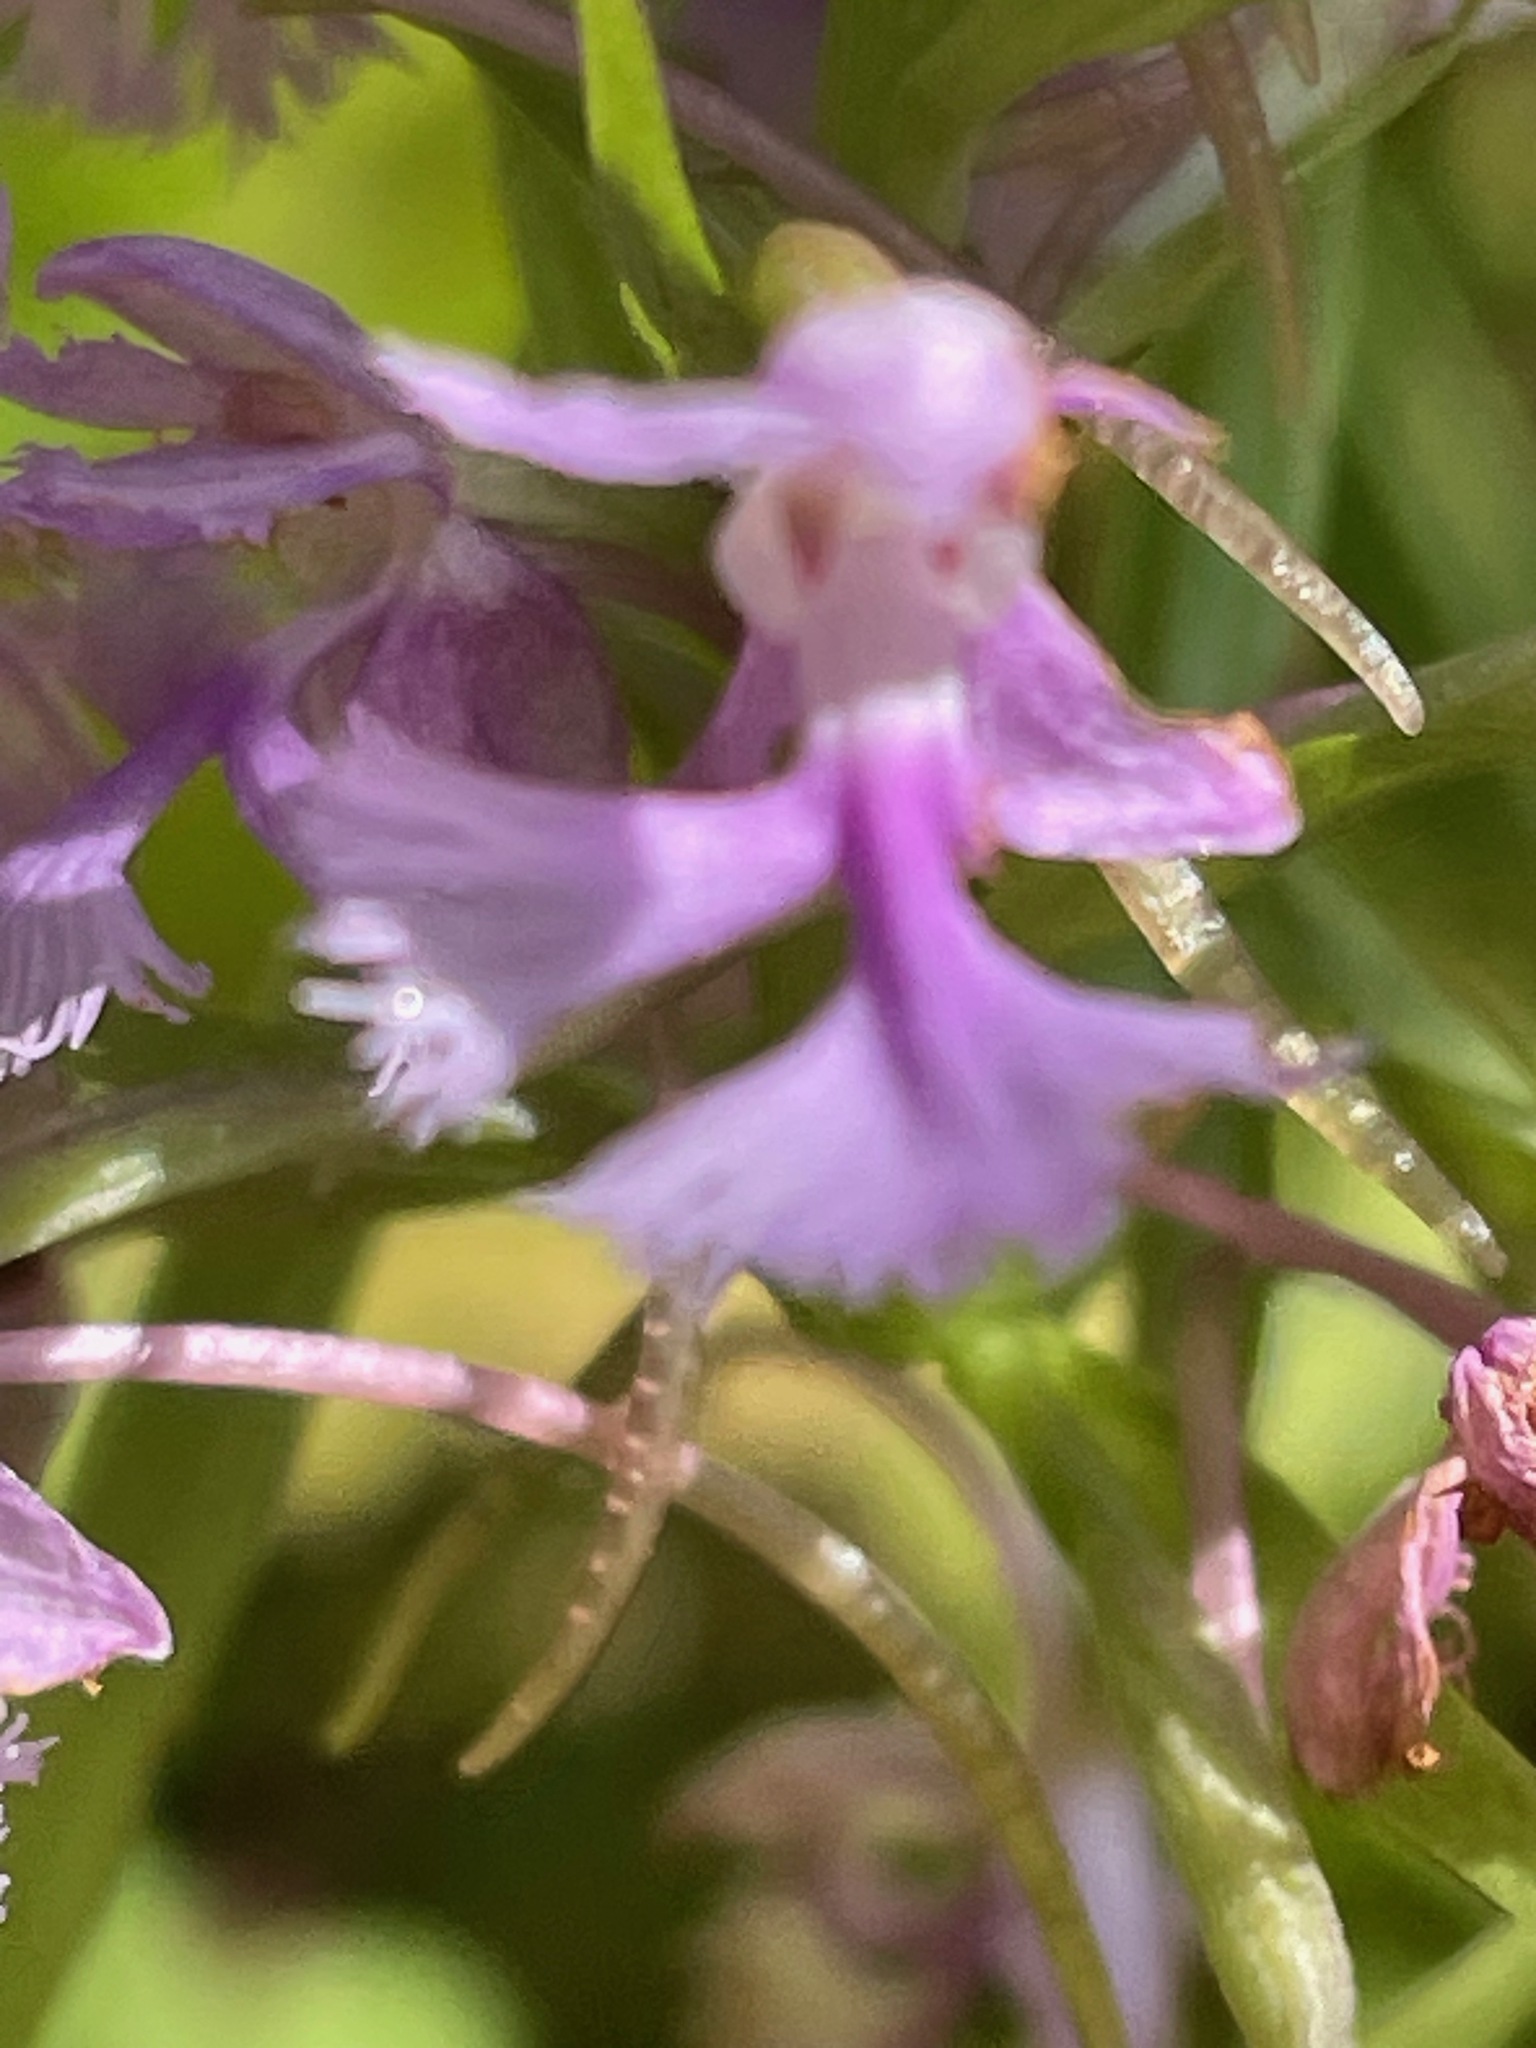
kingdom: Plantae
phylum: Tracheophyta
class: Liliopsida
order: Asparagales
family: Orchidaceae
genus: Platanthera
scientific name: Platanthera psycodes
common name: Lesser purple fringed orchid
